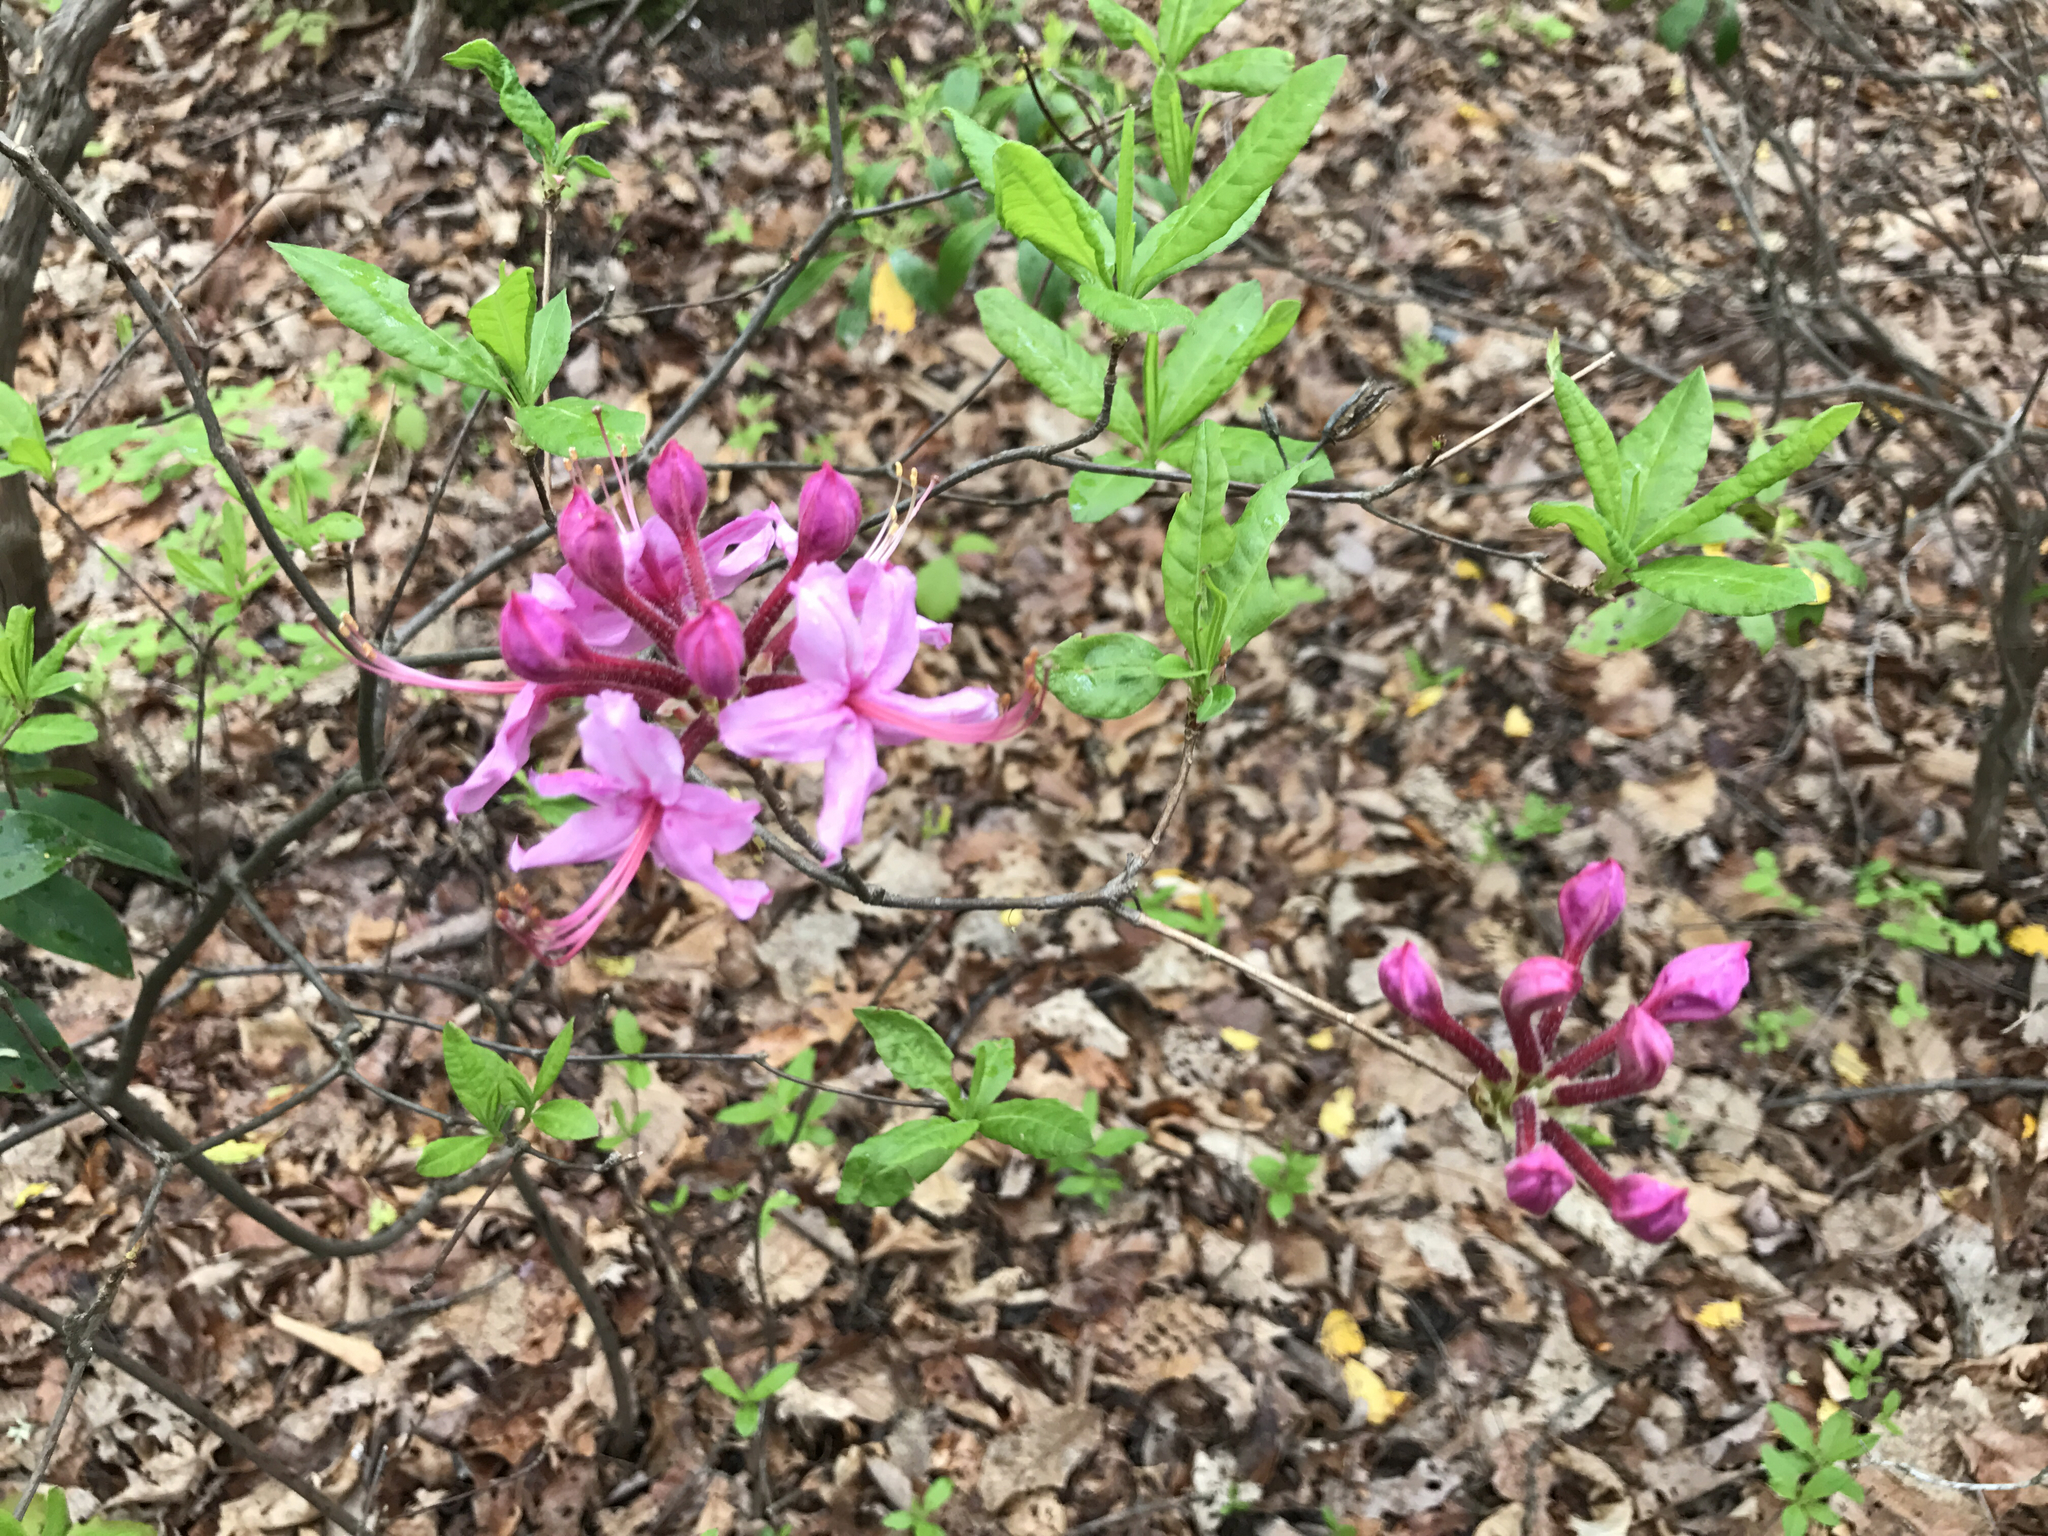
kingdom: Plantae
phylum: Tracheophyta
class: Magnoliopsida
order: Ericales
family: Ericaceae
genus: Rhododendron
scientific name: Rhododendron periclymenoides
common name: Election-pink
